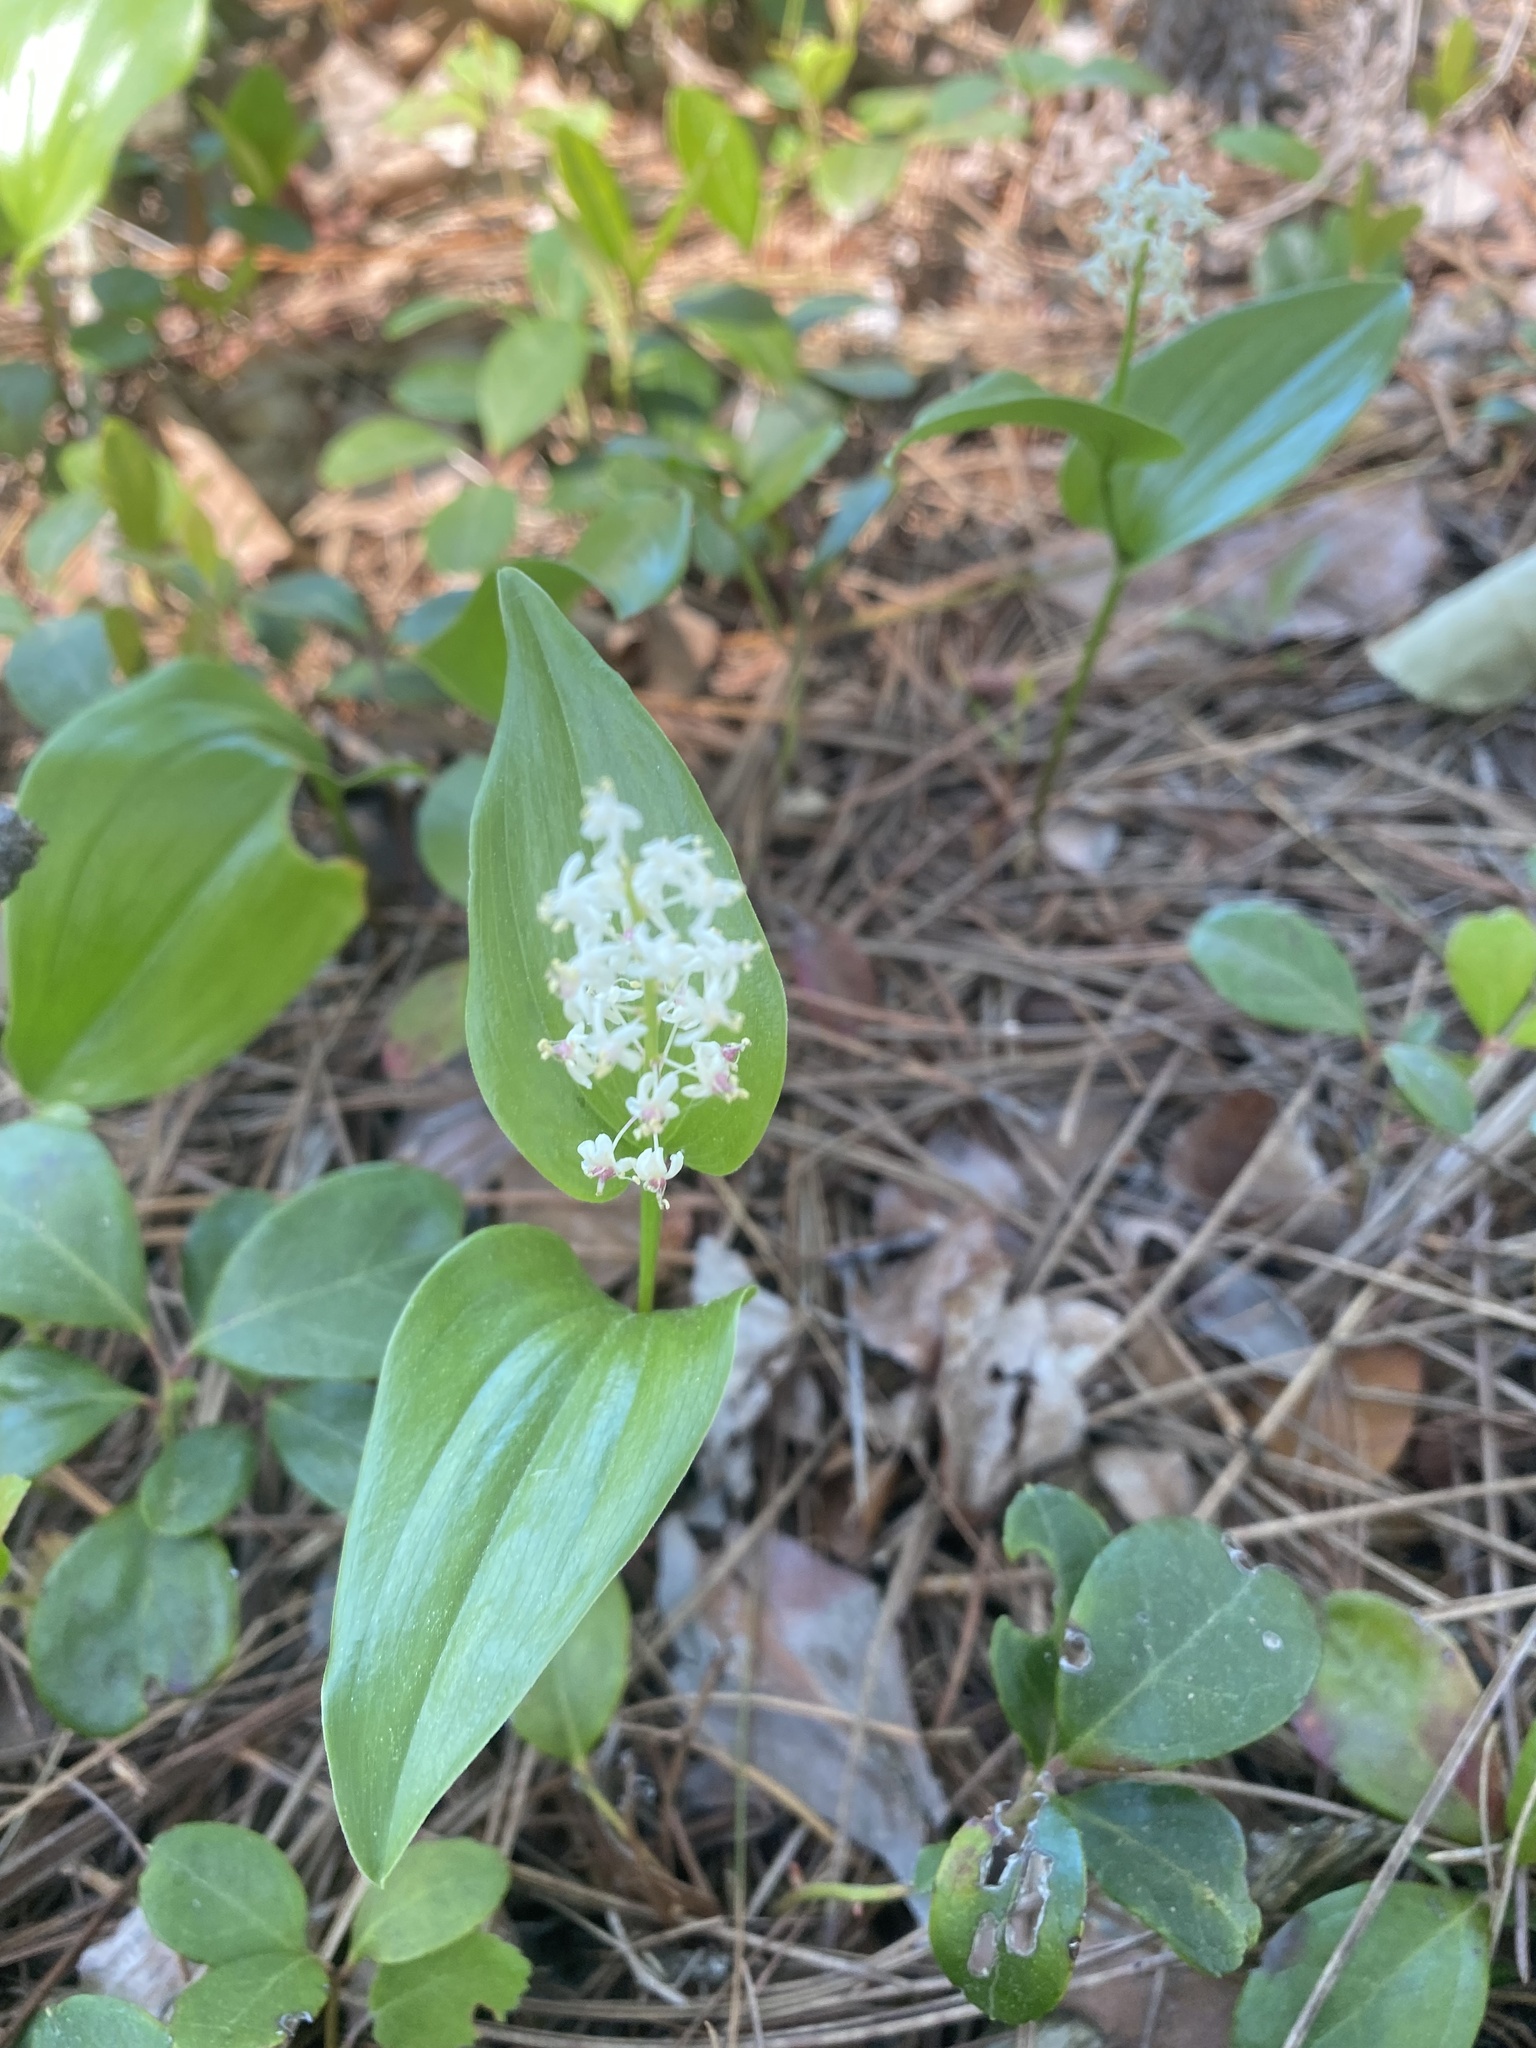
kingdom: Plantae
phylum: Tracheophyta
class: Liliopsida
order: Asparagales
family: Asparagaceae
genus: Maianthemum
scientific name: Maianthemum canadense
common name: False lily-of-the-valley
